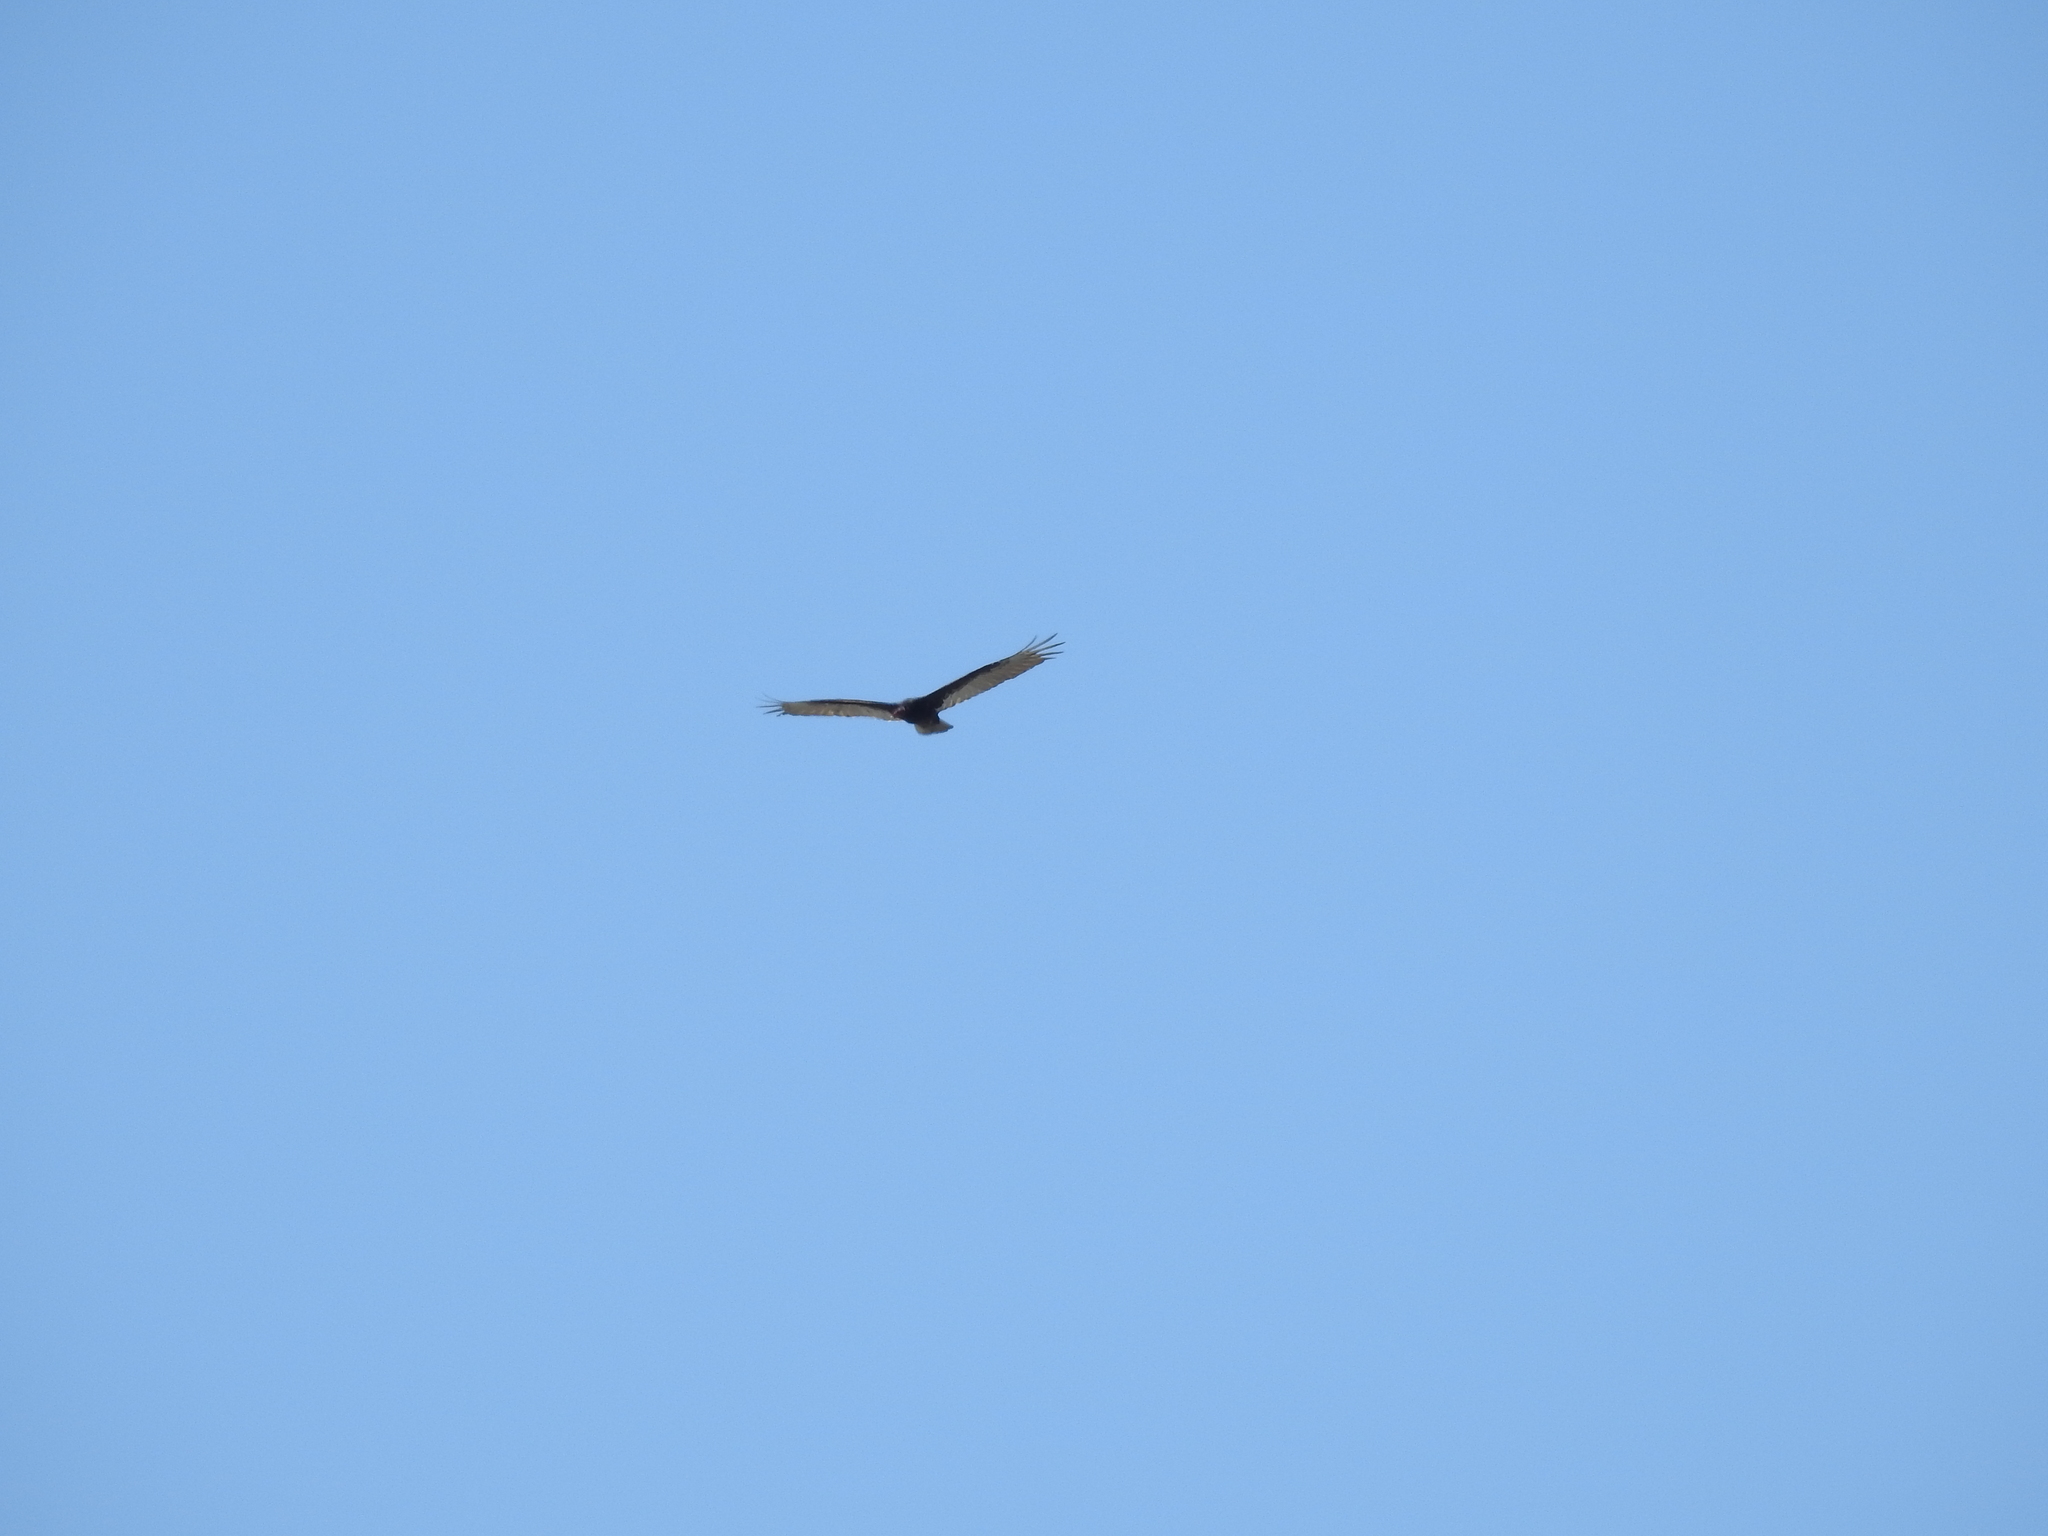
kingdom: Animalia
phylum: Chordata
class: Aves
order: Accipitriformes
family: Cathartidae
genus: Cathartes
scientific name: Cathartes aura
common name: Turkey vulture
